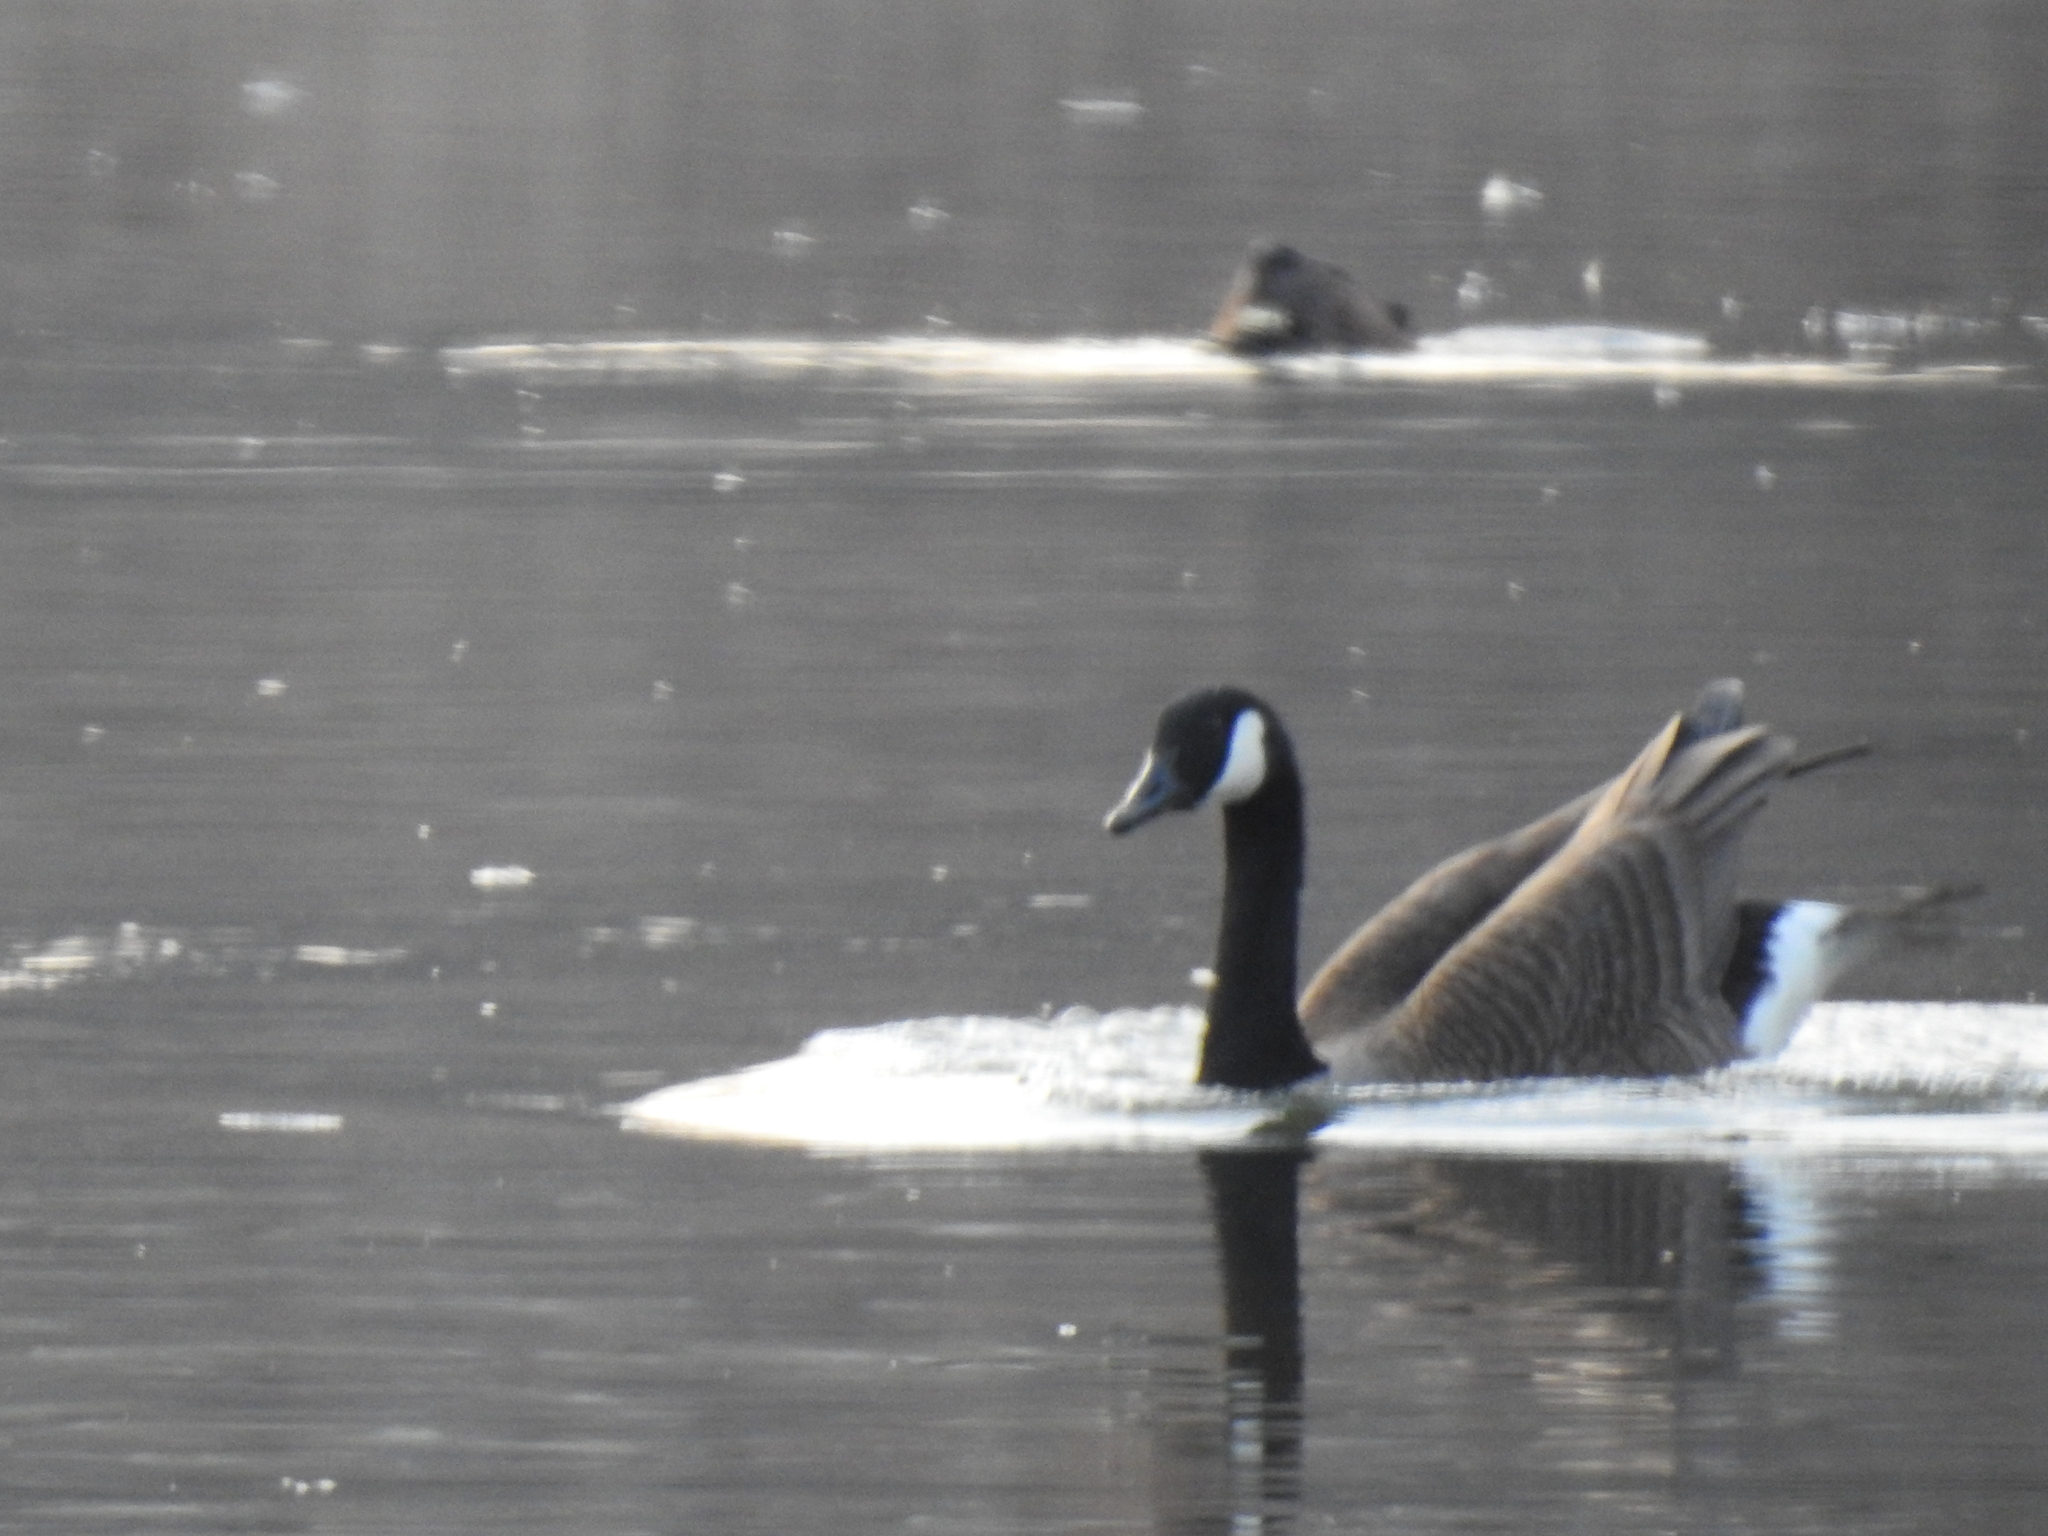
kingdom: Animalia
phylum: Chordata
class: Aves
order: Anseriformes
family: Anatidae
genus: Branta
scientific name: Branta canadensis
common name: Canada goose
